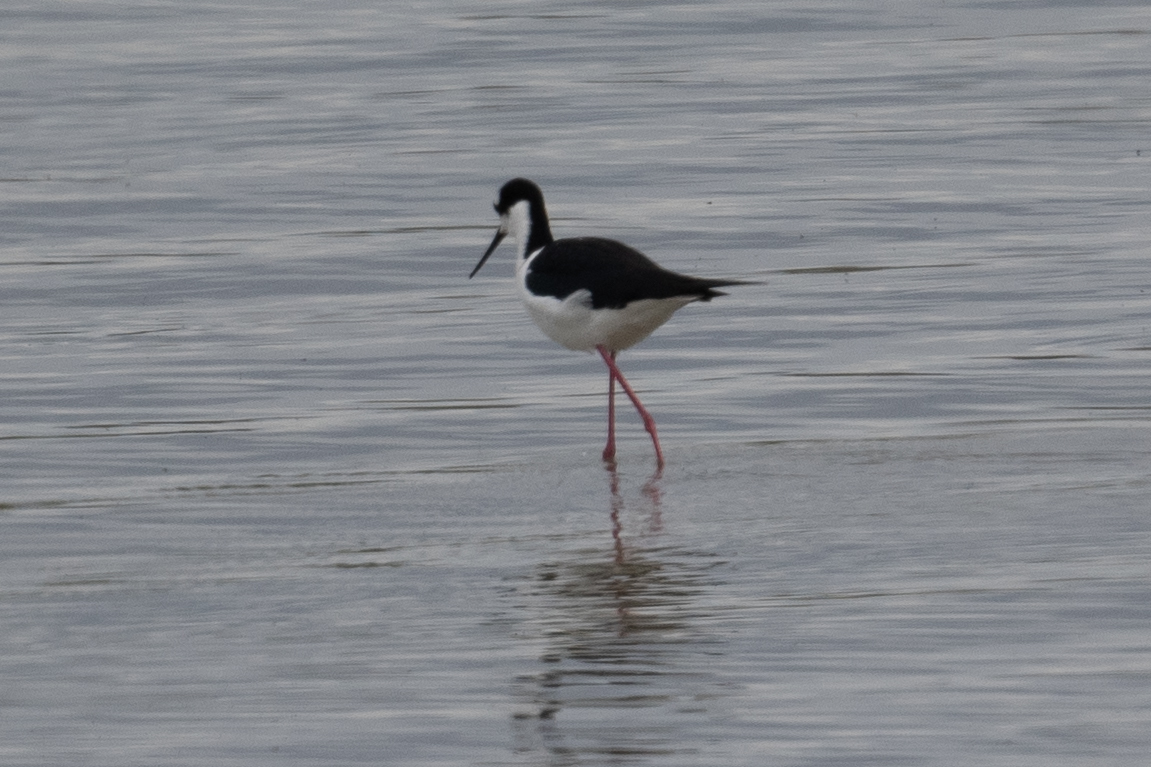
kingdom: Animalia
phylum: Chordata
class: Aves
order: Charadriiformes
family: Recurvirostridae
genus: Himantopus
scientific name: Himantopus mexicanus
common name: Black-necked stilt
